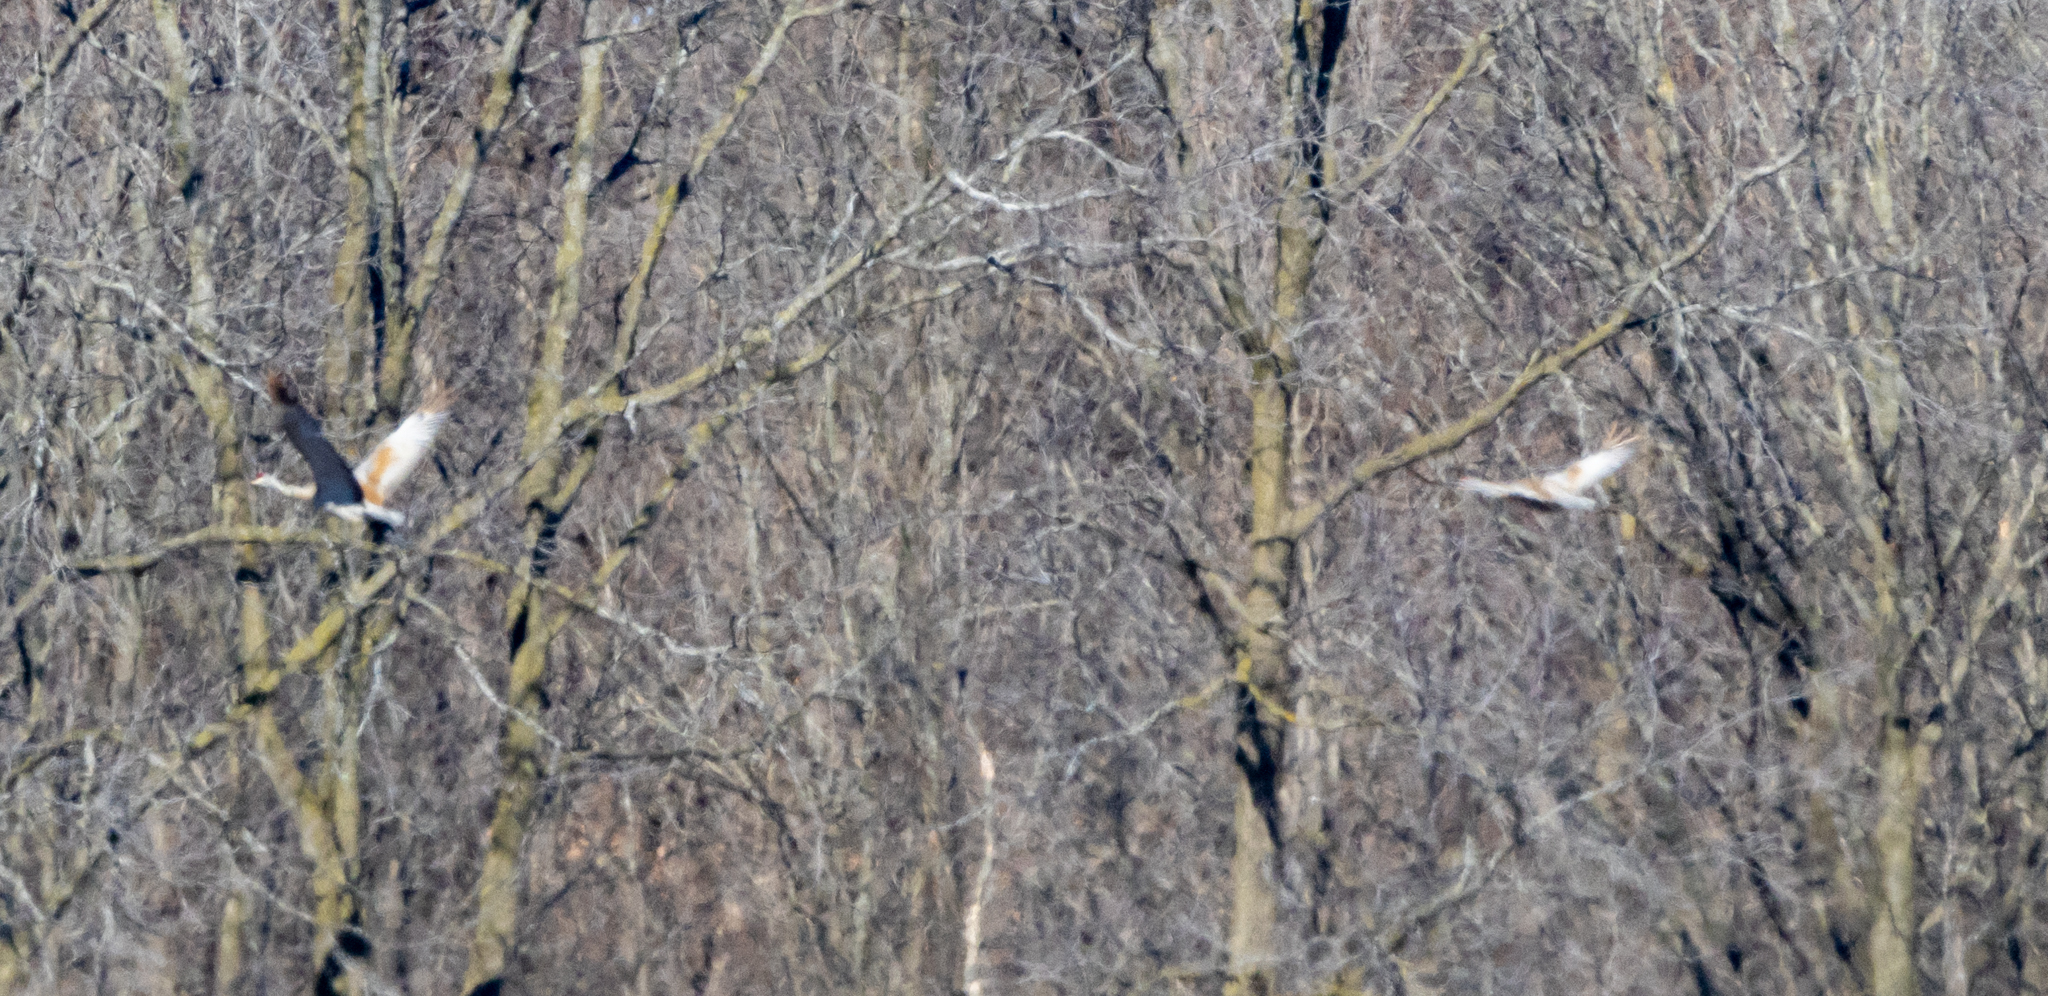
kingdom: Animalia
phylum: Chordata
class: Aves
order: Gruiformes
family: Gruidae
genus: Grus
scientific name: Grus canadensis
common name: Sandhill crane
